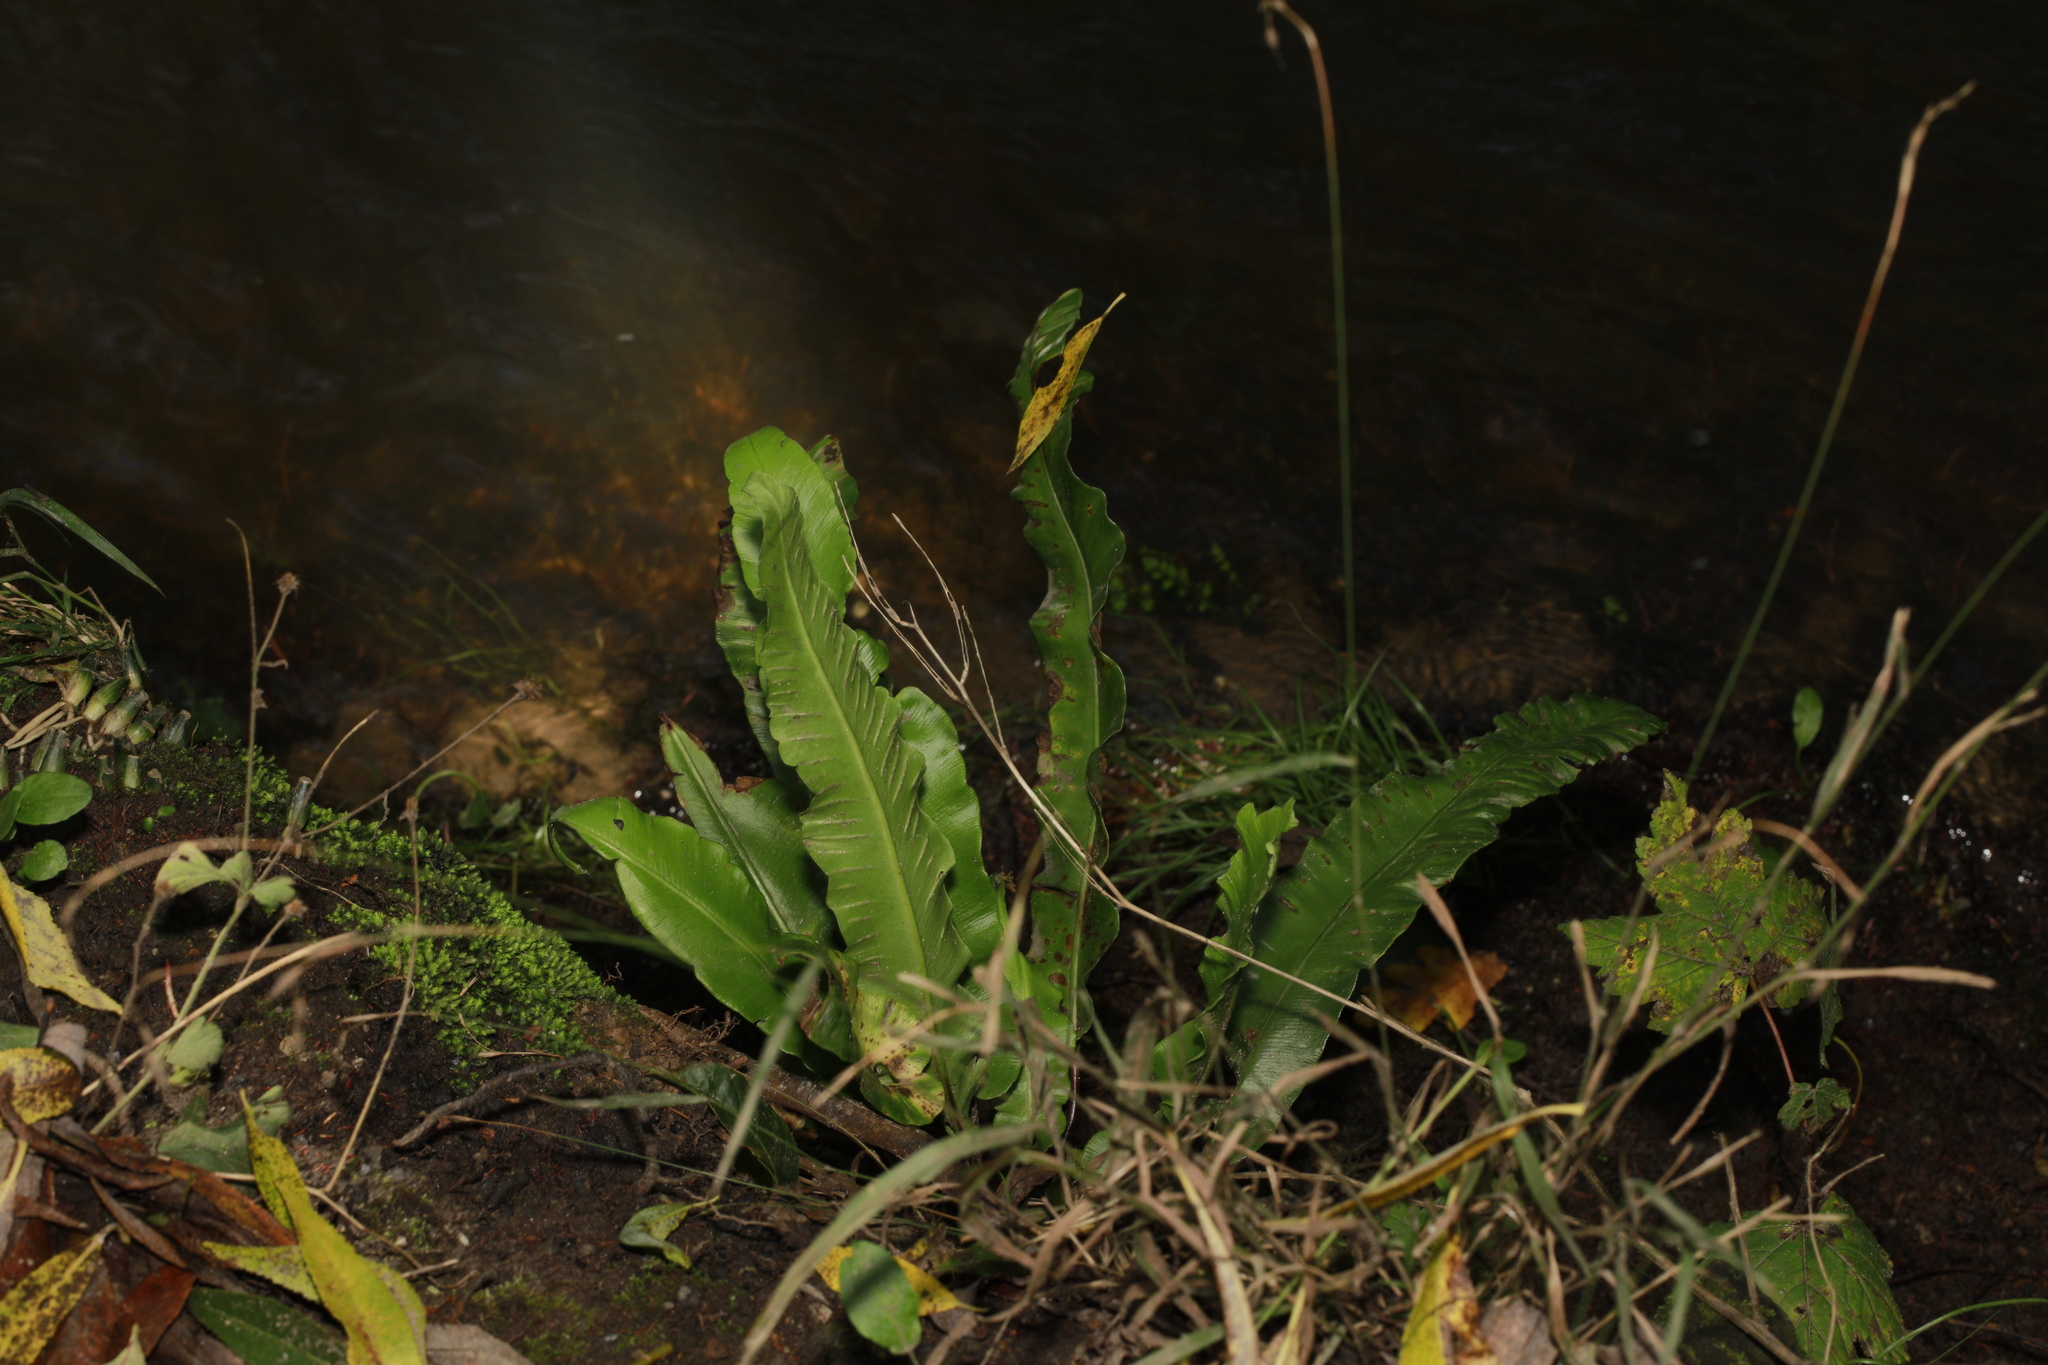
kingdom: Plantae
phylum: Tracheophyta
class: Polypodiopsida
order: Polypodiales
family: Aspleniaceae
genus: Asplenium
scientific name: Asplenium scolopendrium
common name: Hart's-tongue fern
